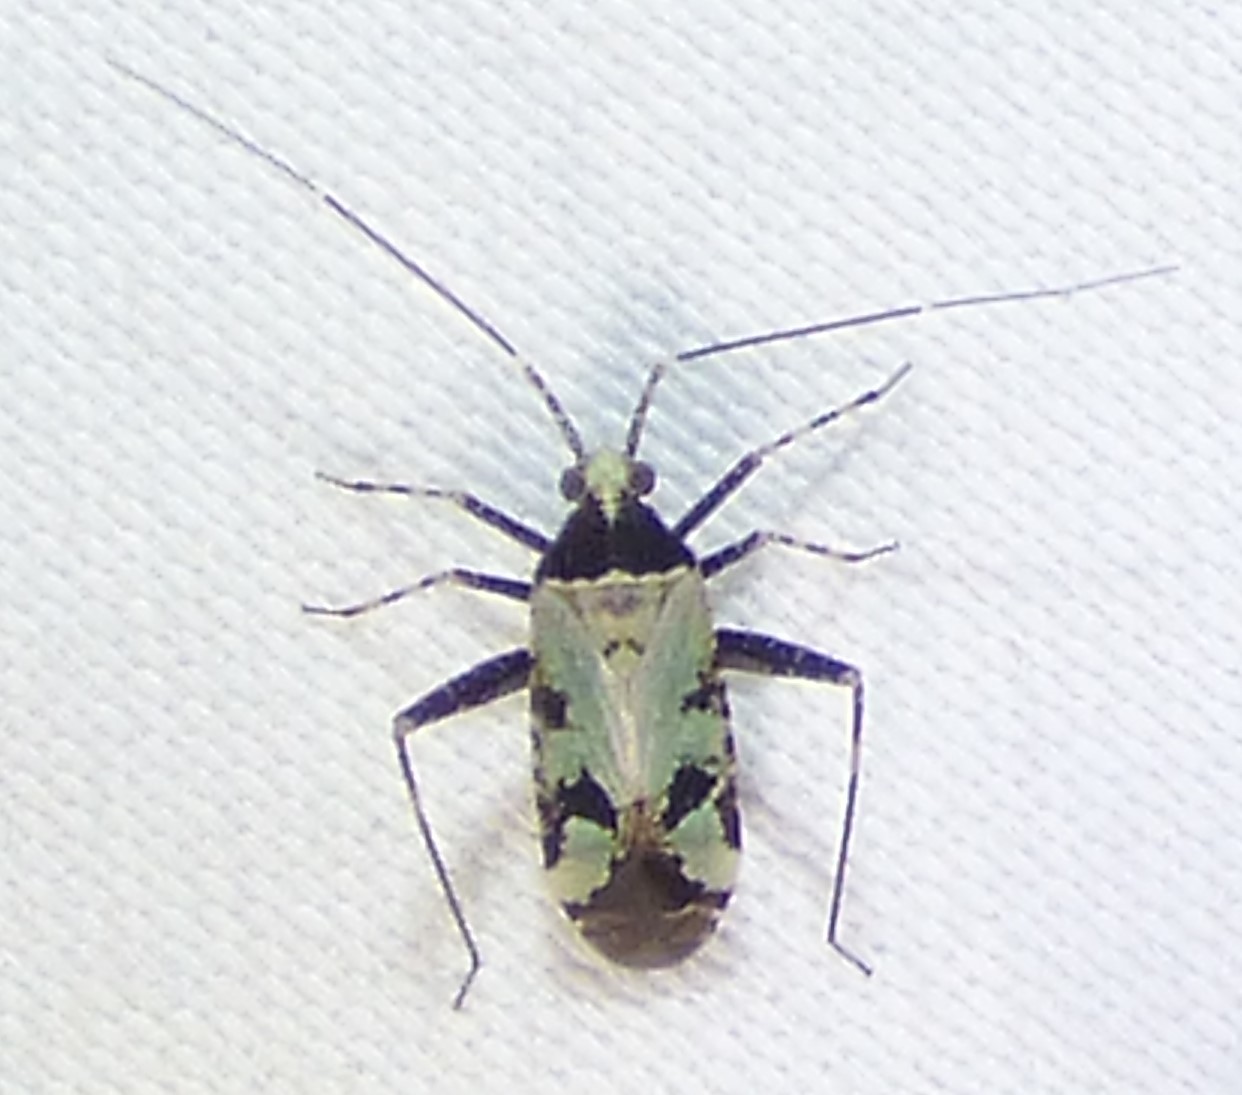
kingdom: Animalia
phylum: Arthropoda
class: Insecta
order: Hemiptera
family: Miridae
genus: Phytocoris
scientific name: Phytocoris nigricollis
